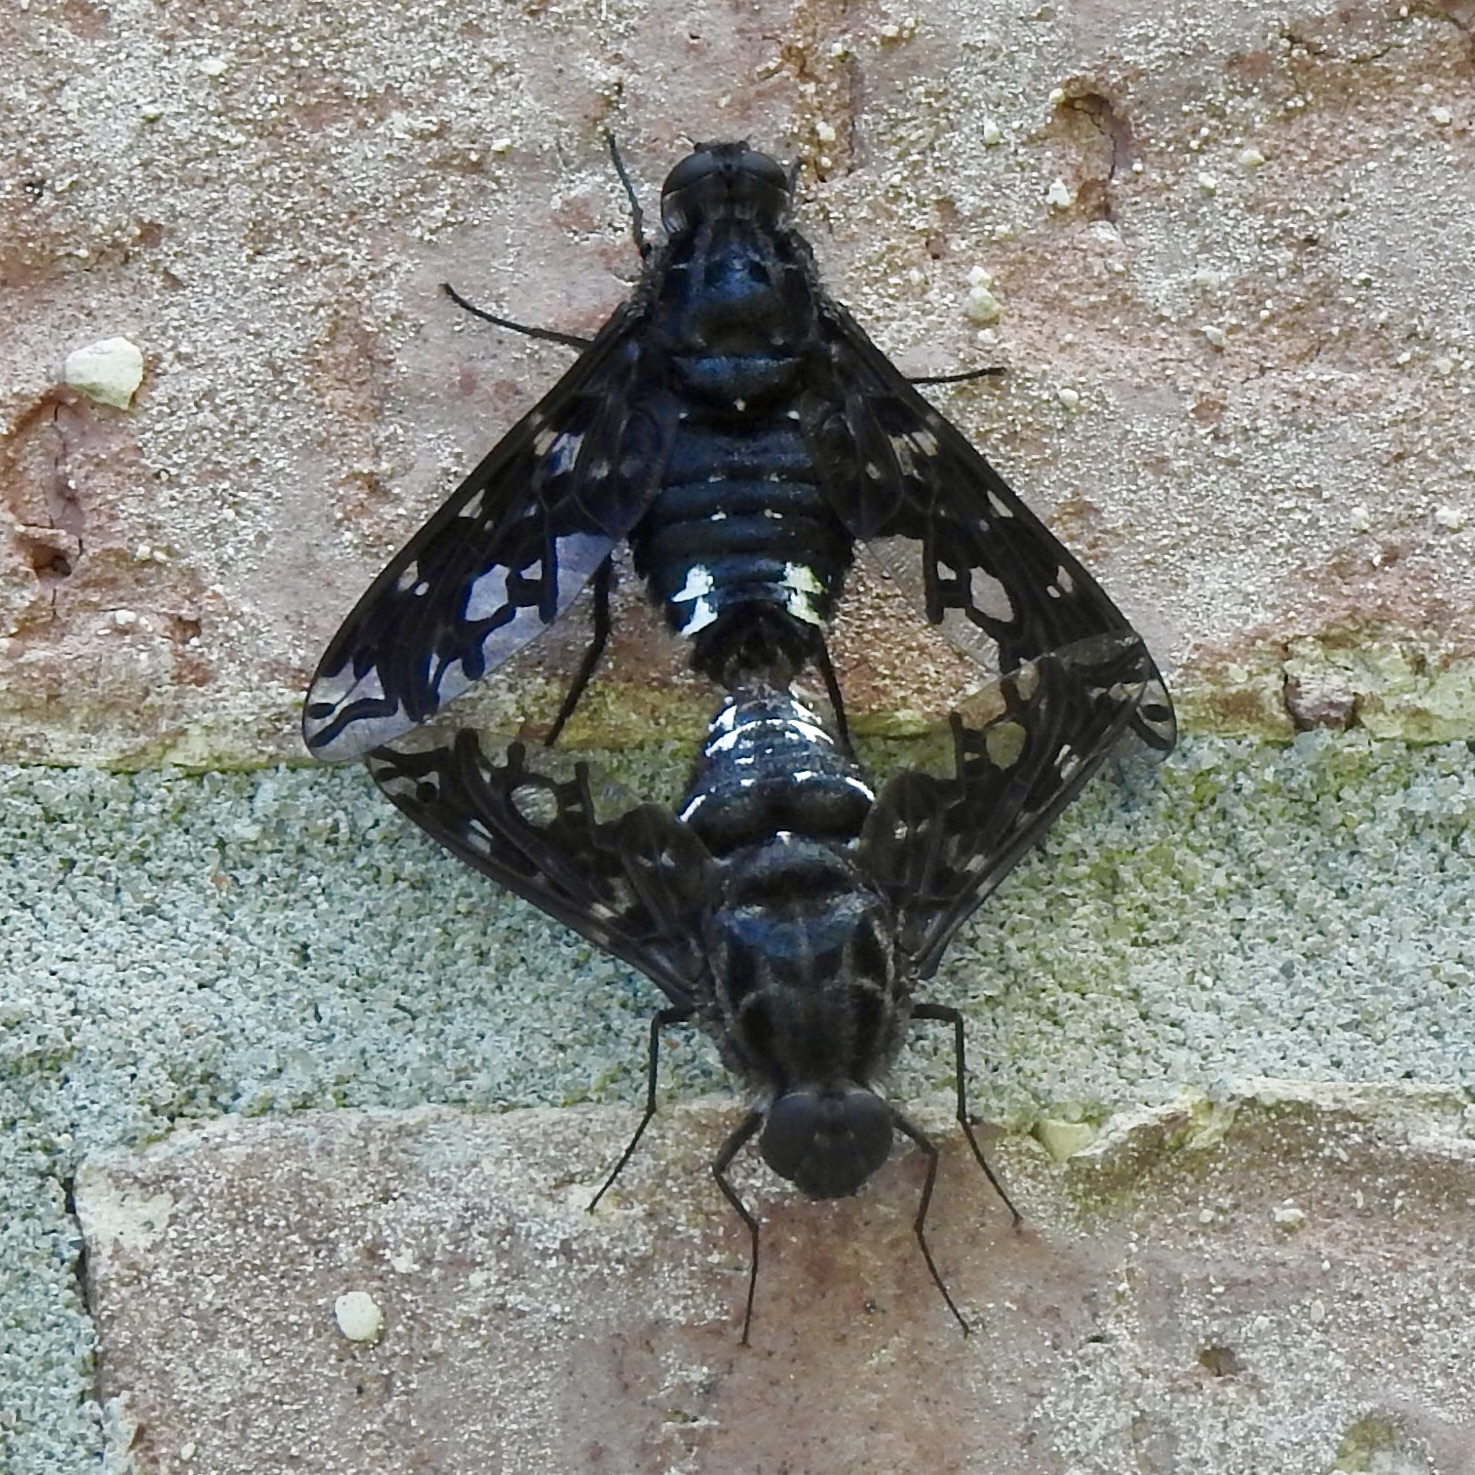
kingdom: Animalia
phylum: Arthropoda
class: Insecta
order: Diptera
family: Bombyliidae
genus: Xenox
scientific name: Xenox tigrinus
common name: Tiger bee fly
